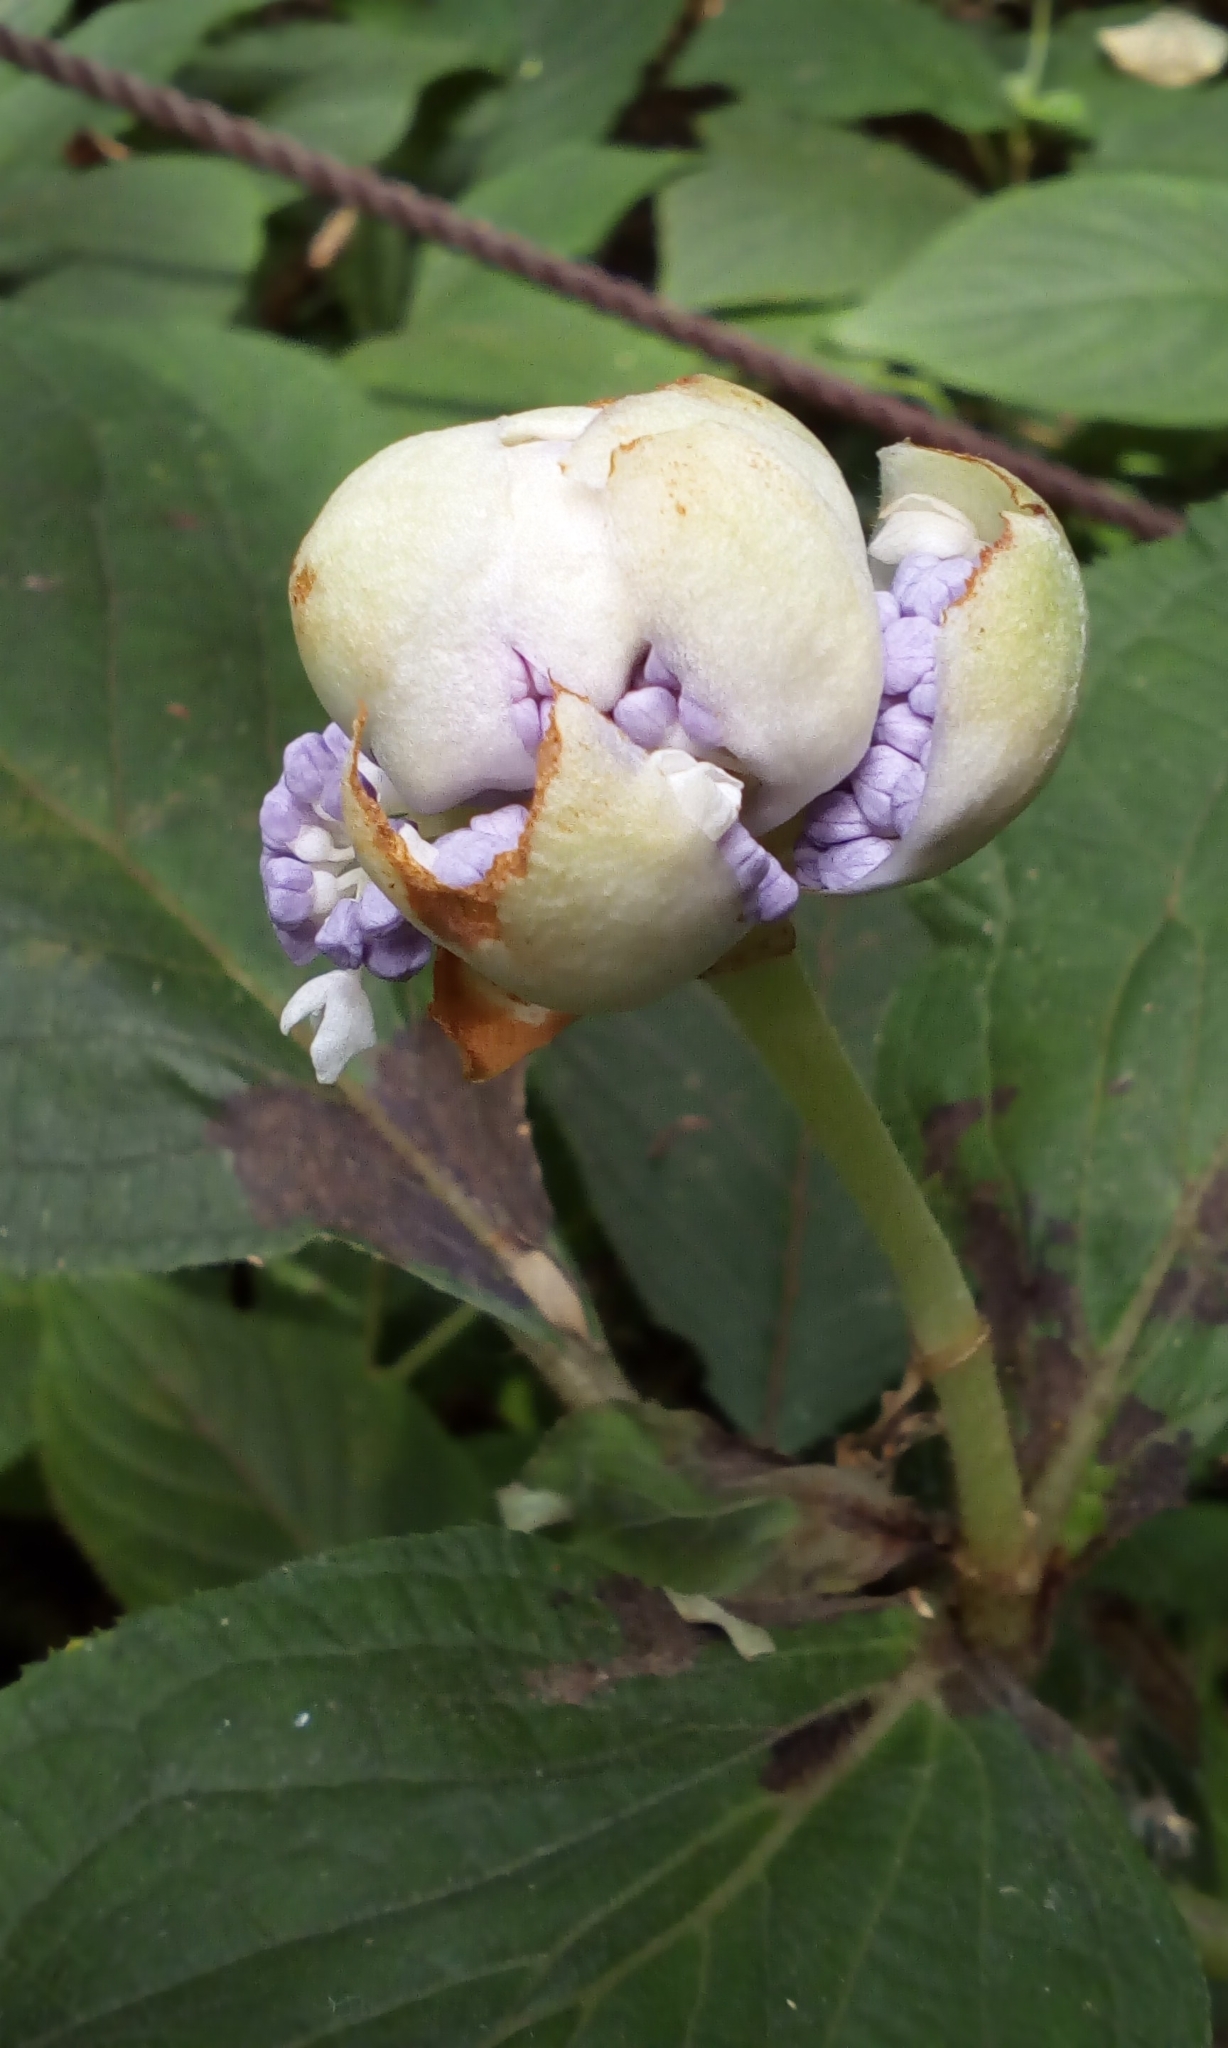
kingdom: Plantae
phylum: Tracheophyta
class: Magnoliopsida
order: Cornales
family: Hydrangeaceae
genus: Hydrangea
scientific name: Hydrangea involucrata
